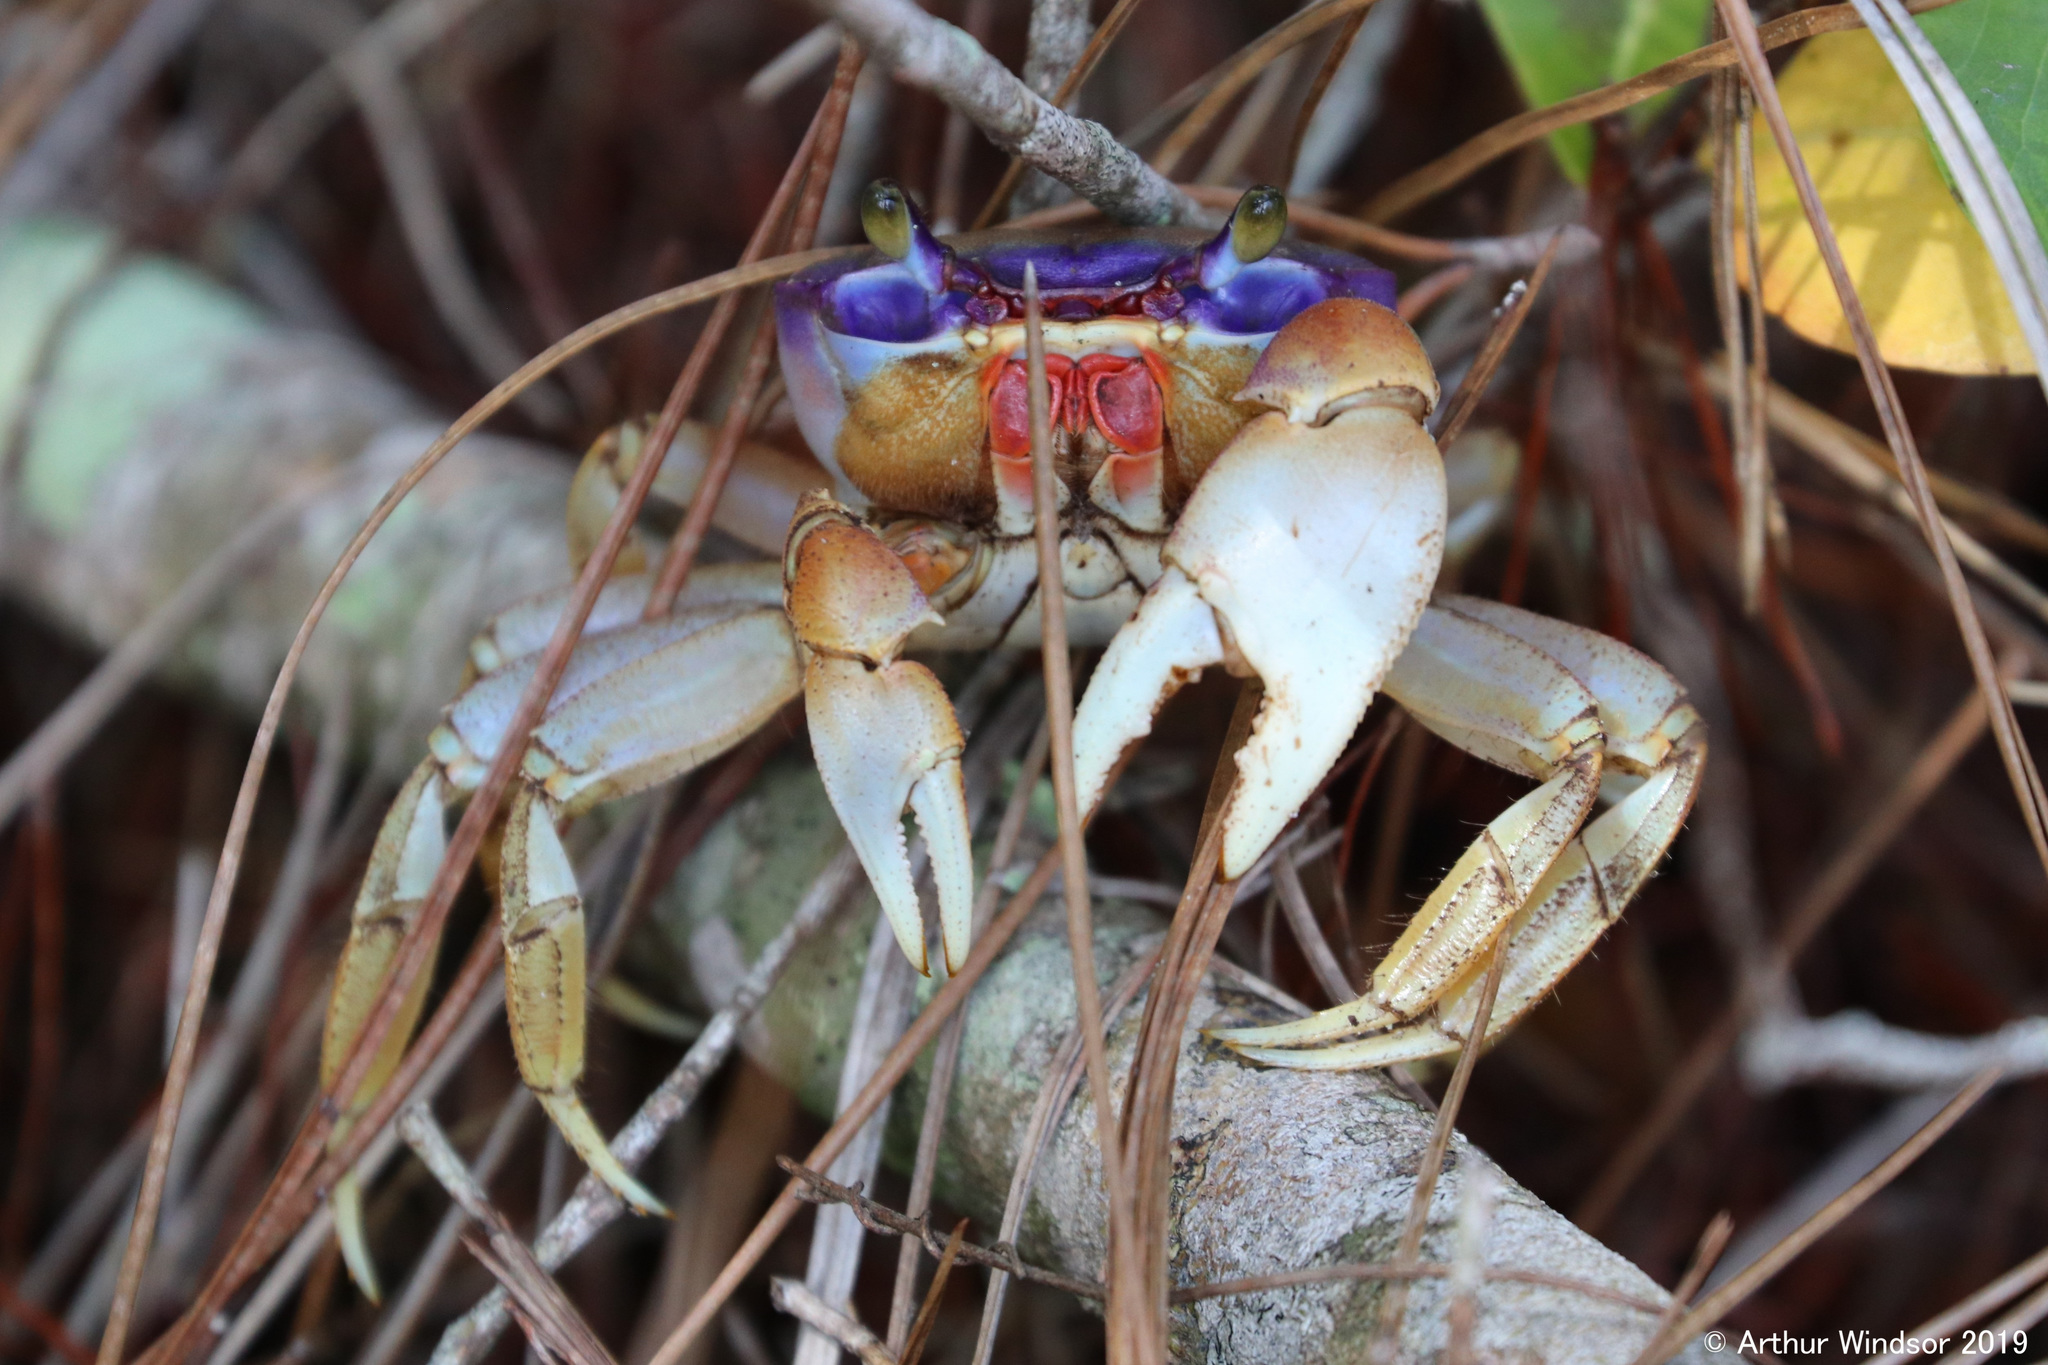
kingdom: Animalia
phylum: Arthropoda
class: Malacostraca
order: Decapoda
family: Gecarcinidae
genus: Cardisoma
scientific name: Cardisoma guanhumi
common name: Great land crab
